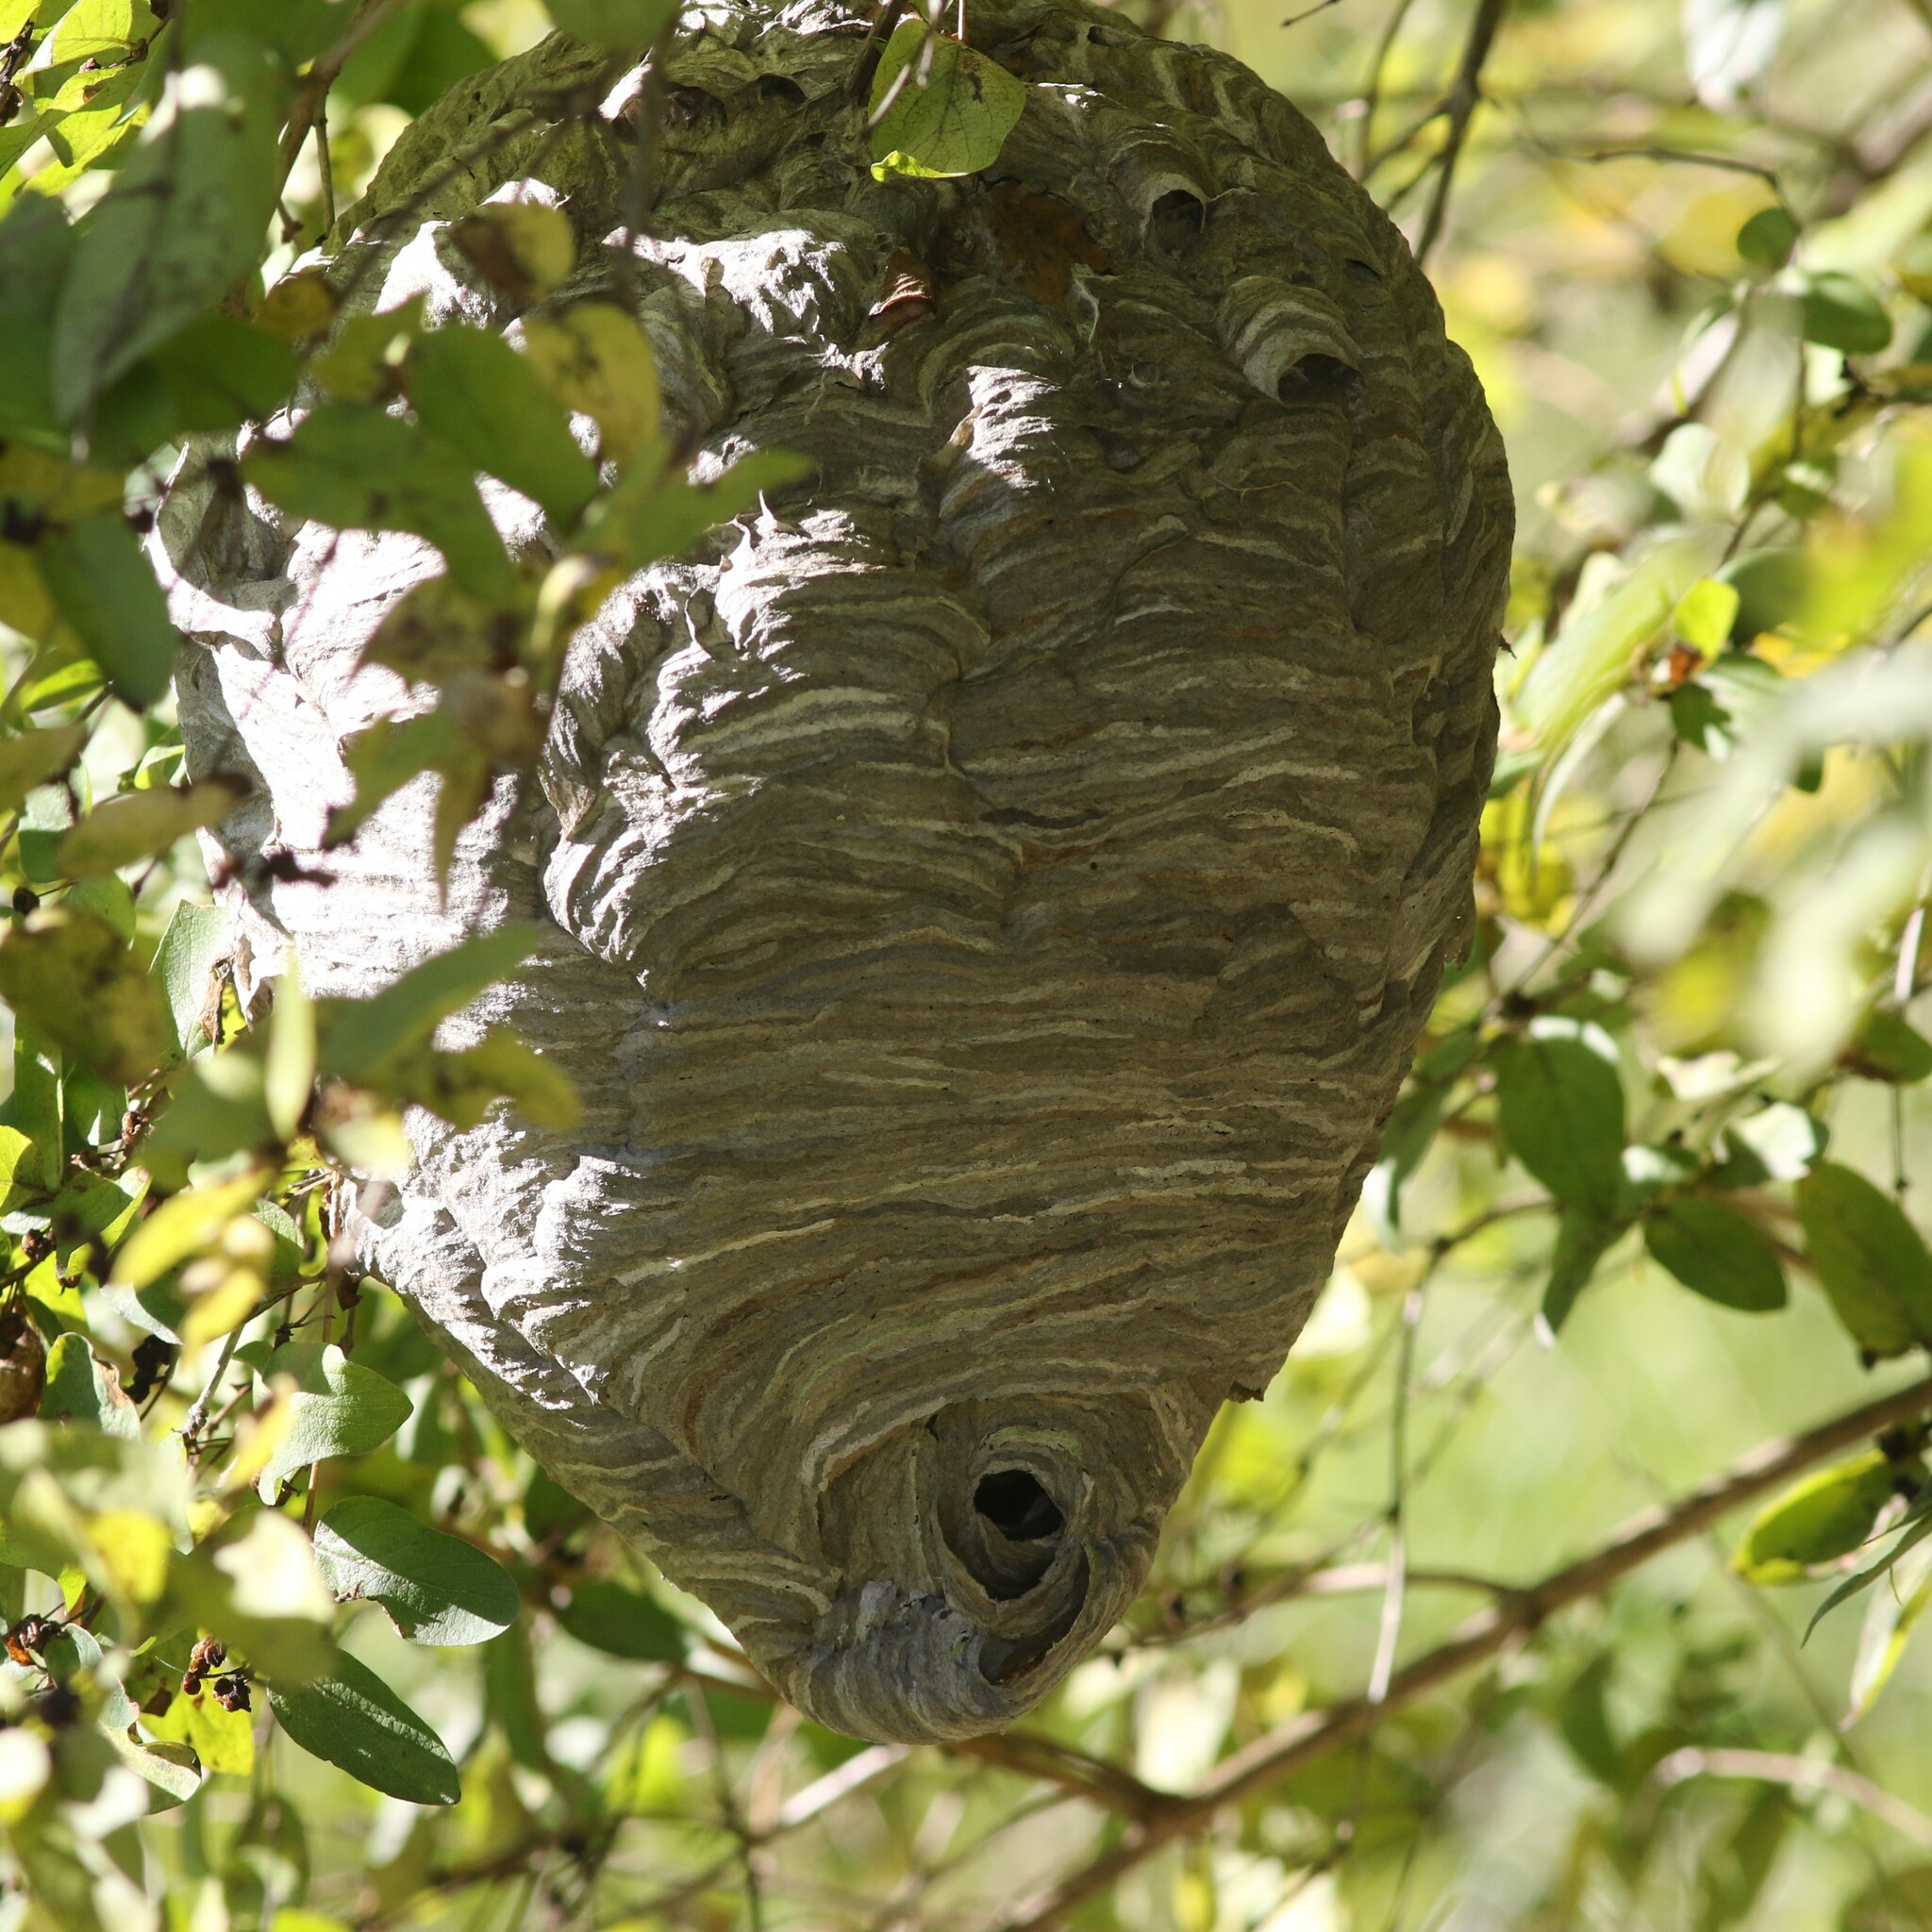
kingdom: Animalia
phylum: Arthropoda
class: Insecta
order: Hymenoptera
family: Vespidae
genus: Dolichovespula
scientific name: Dolichovespula maculata
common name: Bald-faced hornet
